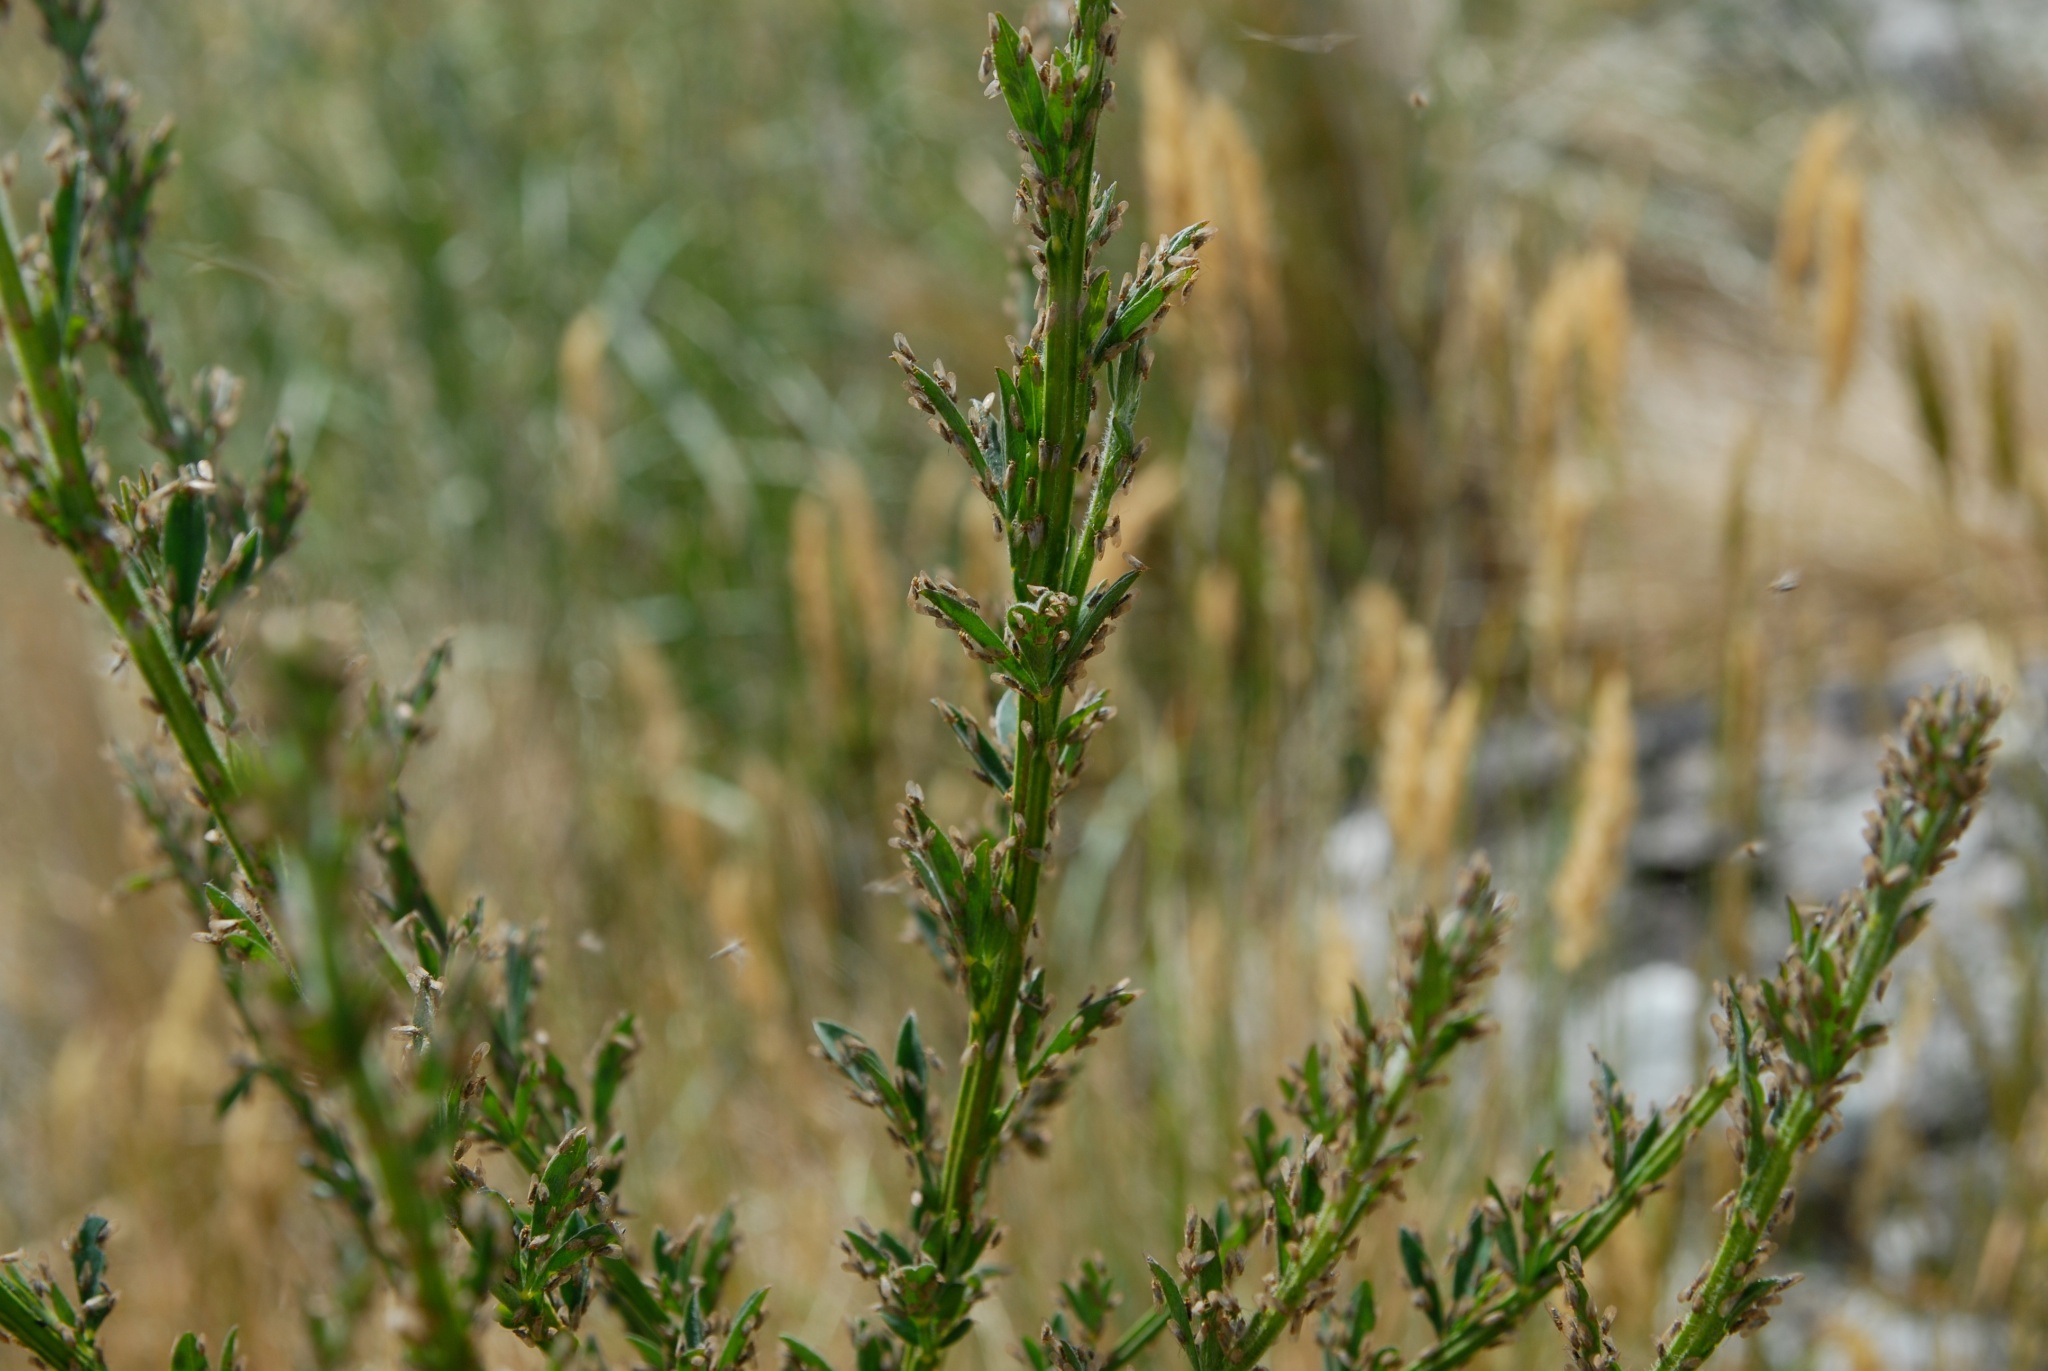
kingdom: Animalia
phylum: Arthropoda
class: Insecta
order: Hemiptera
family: Psyllidae
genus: Arytainilla
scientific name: Arytainilla spartiophila
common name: Psyllid
